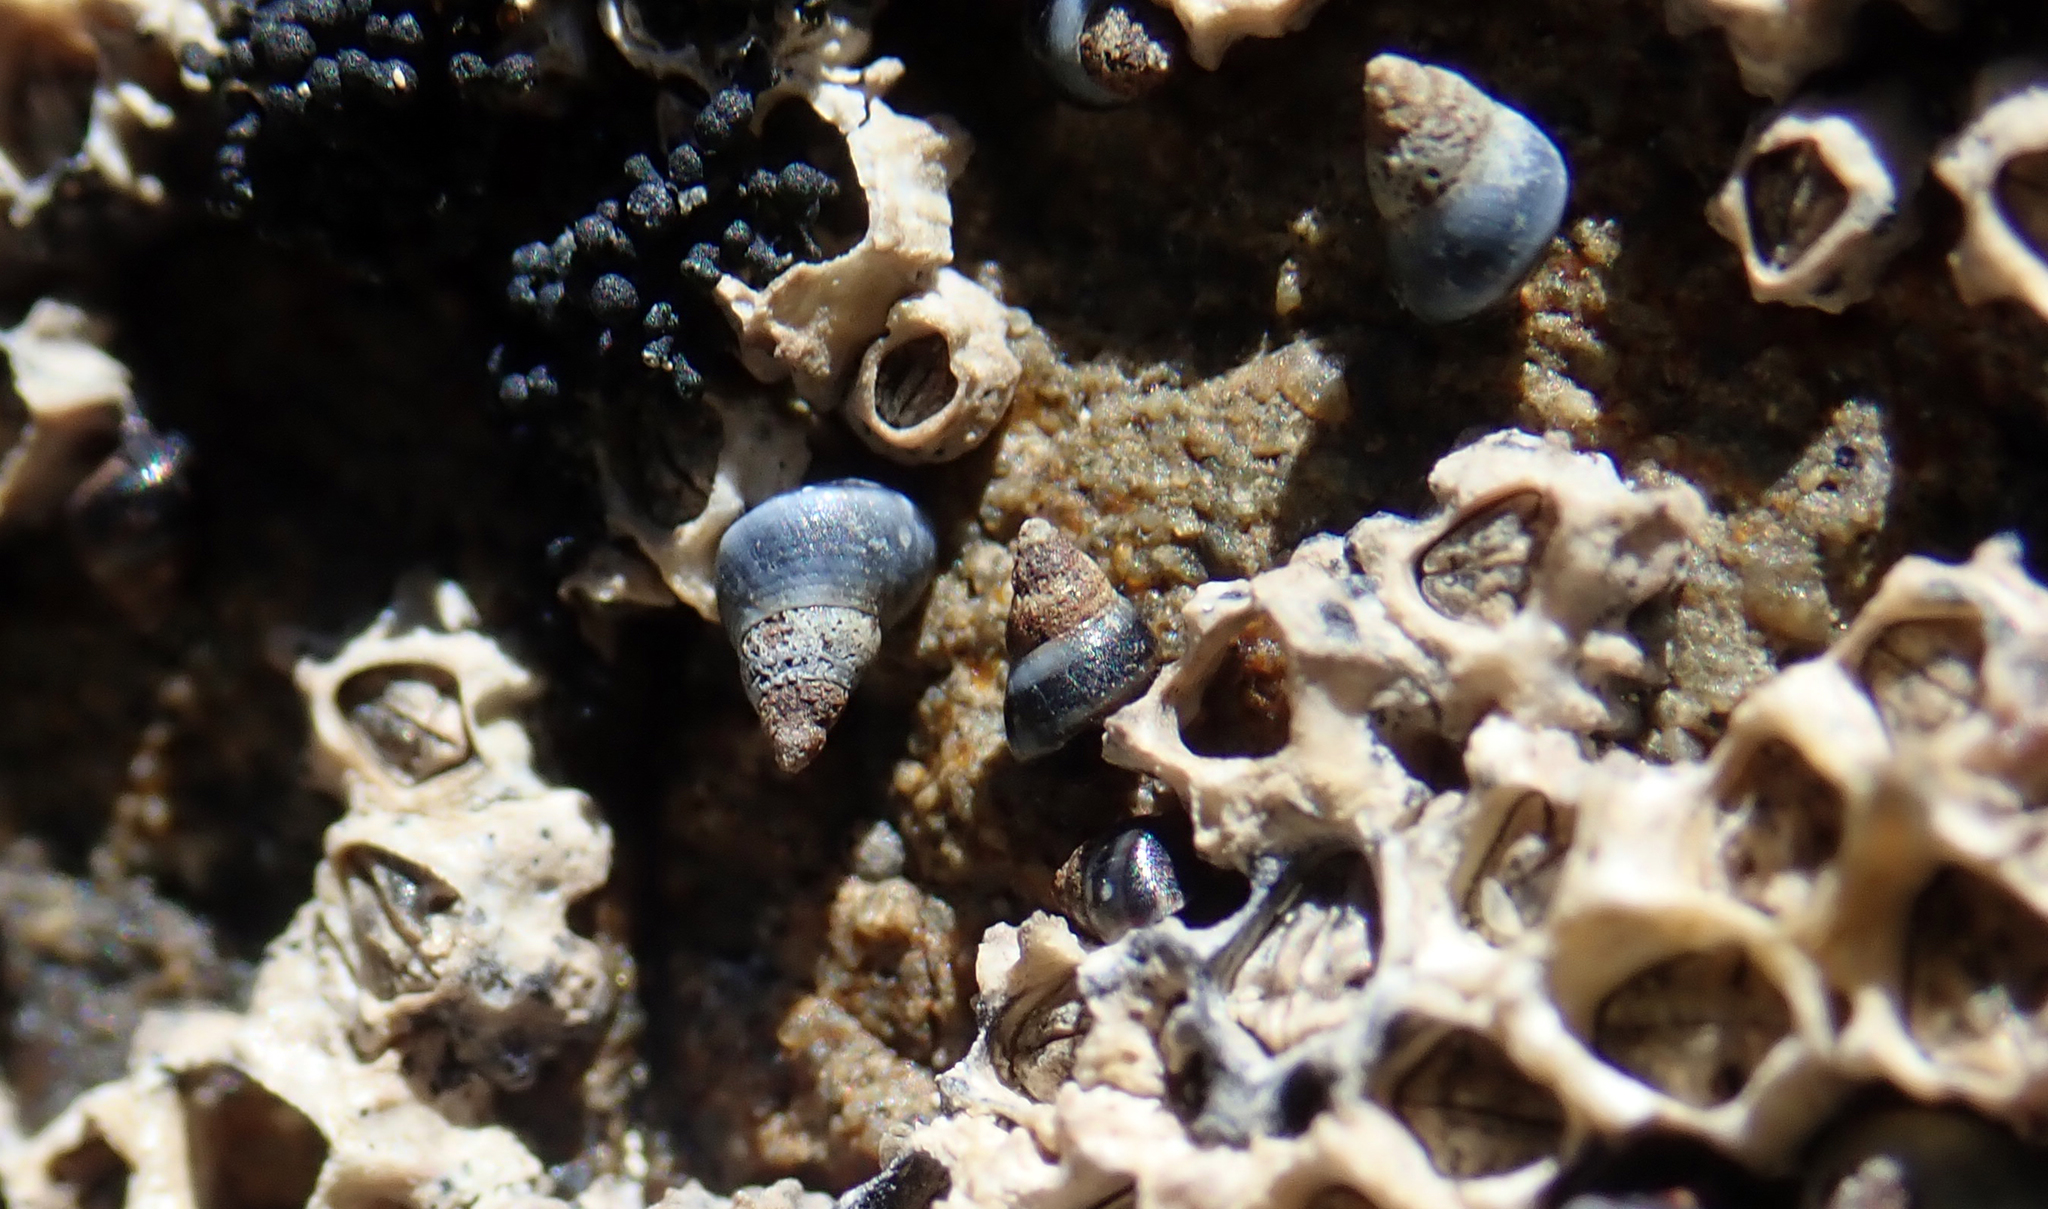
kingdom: Animalia
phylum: Mollusca
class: Gastropoda
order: Littorinimorpha
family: Littorinidae
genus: Austrolittorina
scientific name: Austrolittorina antipodum
